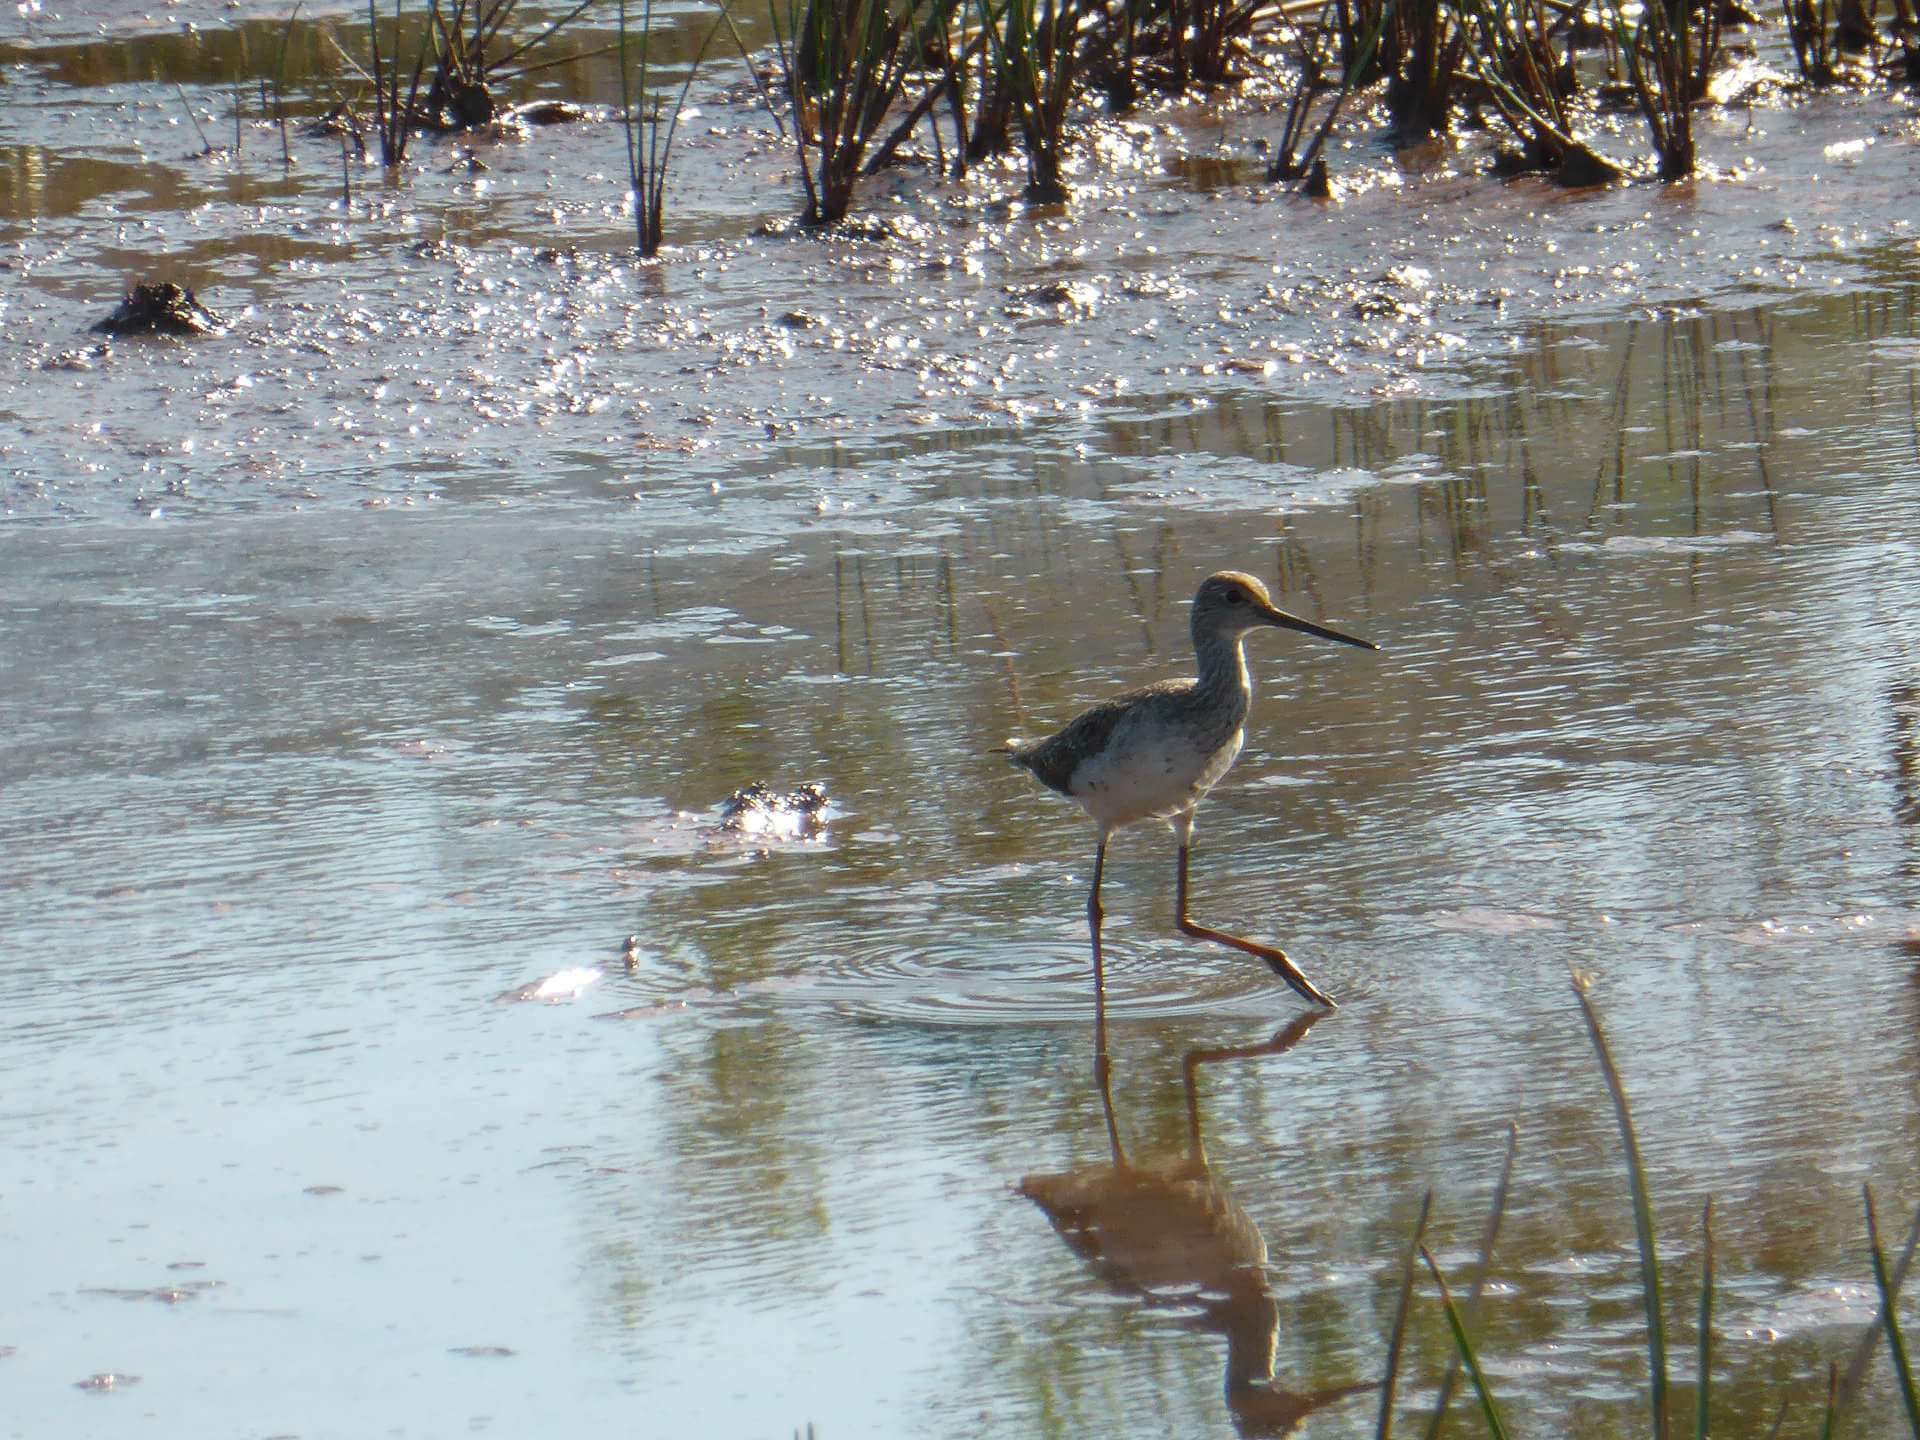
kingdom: Animalia
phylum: Chordata
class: Aves
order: Charadriiformes
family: Scolopacidae
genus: Tringa
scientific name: Tringa melanoleuca
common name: Greater yellowlegs
